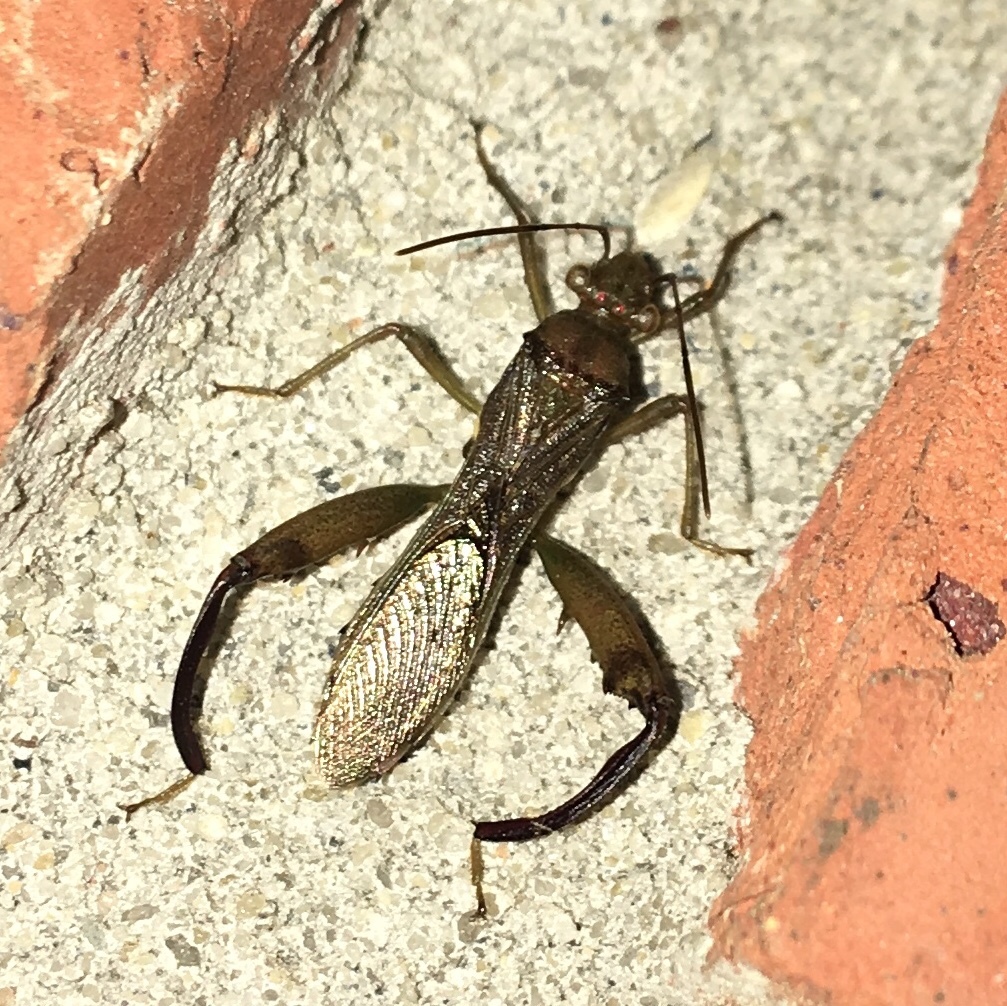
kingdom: Animalia
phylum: Arthropoda
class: Insecta
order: Hemiptera
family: Alydidae
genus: Hyalymenus
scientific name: Hyalymenus tarsatus
